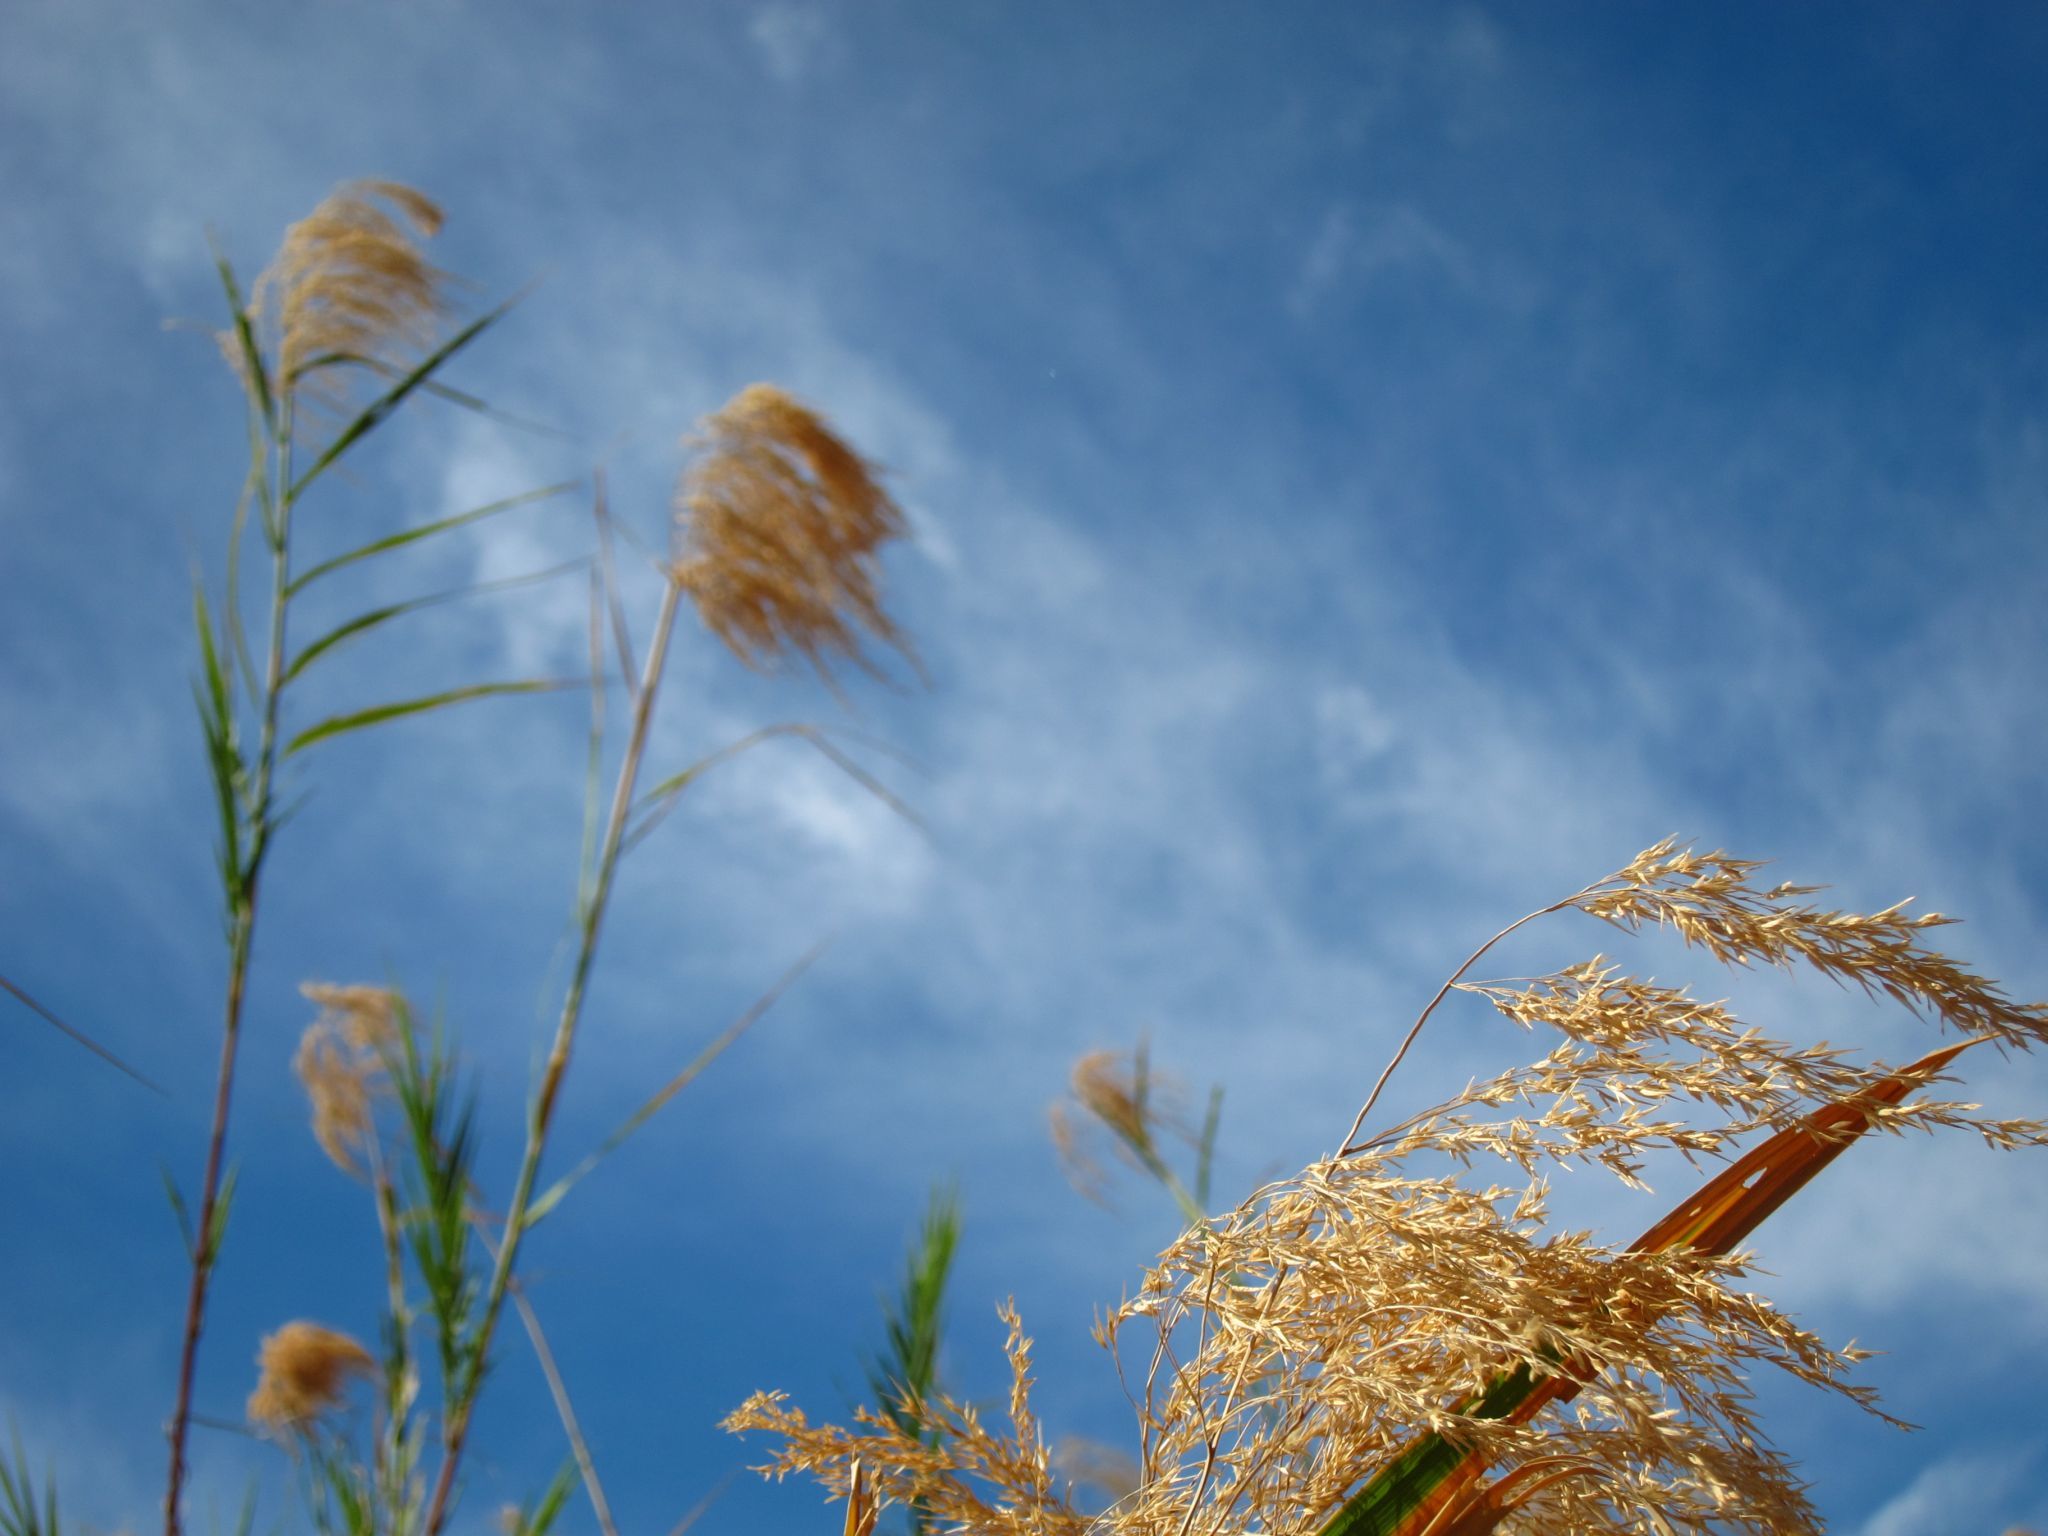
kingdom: Plantae
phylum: Tracheophyta
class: Liliopsida
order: Poales
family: Poaceae
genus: Phragmites
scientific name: Phragmites mauritianus
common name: Reed grass
